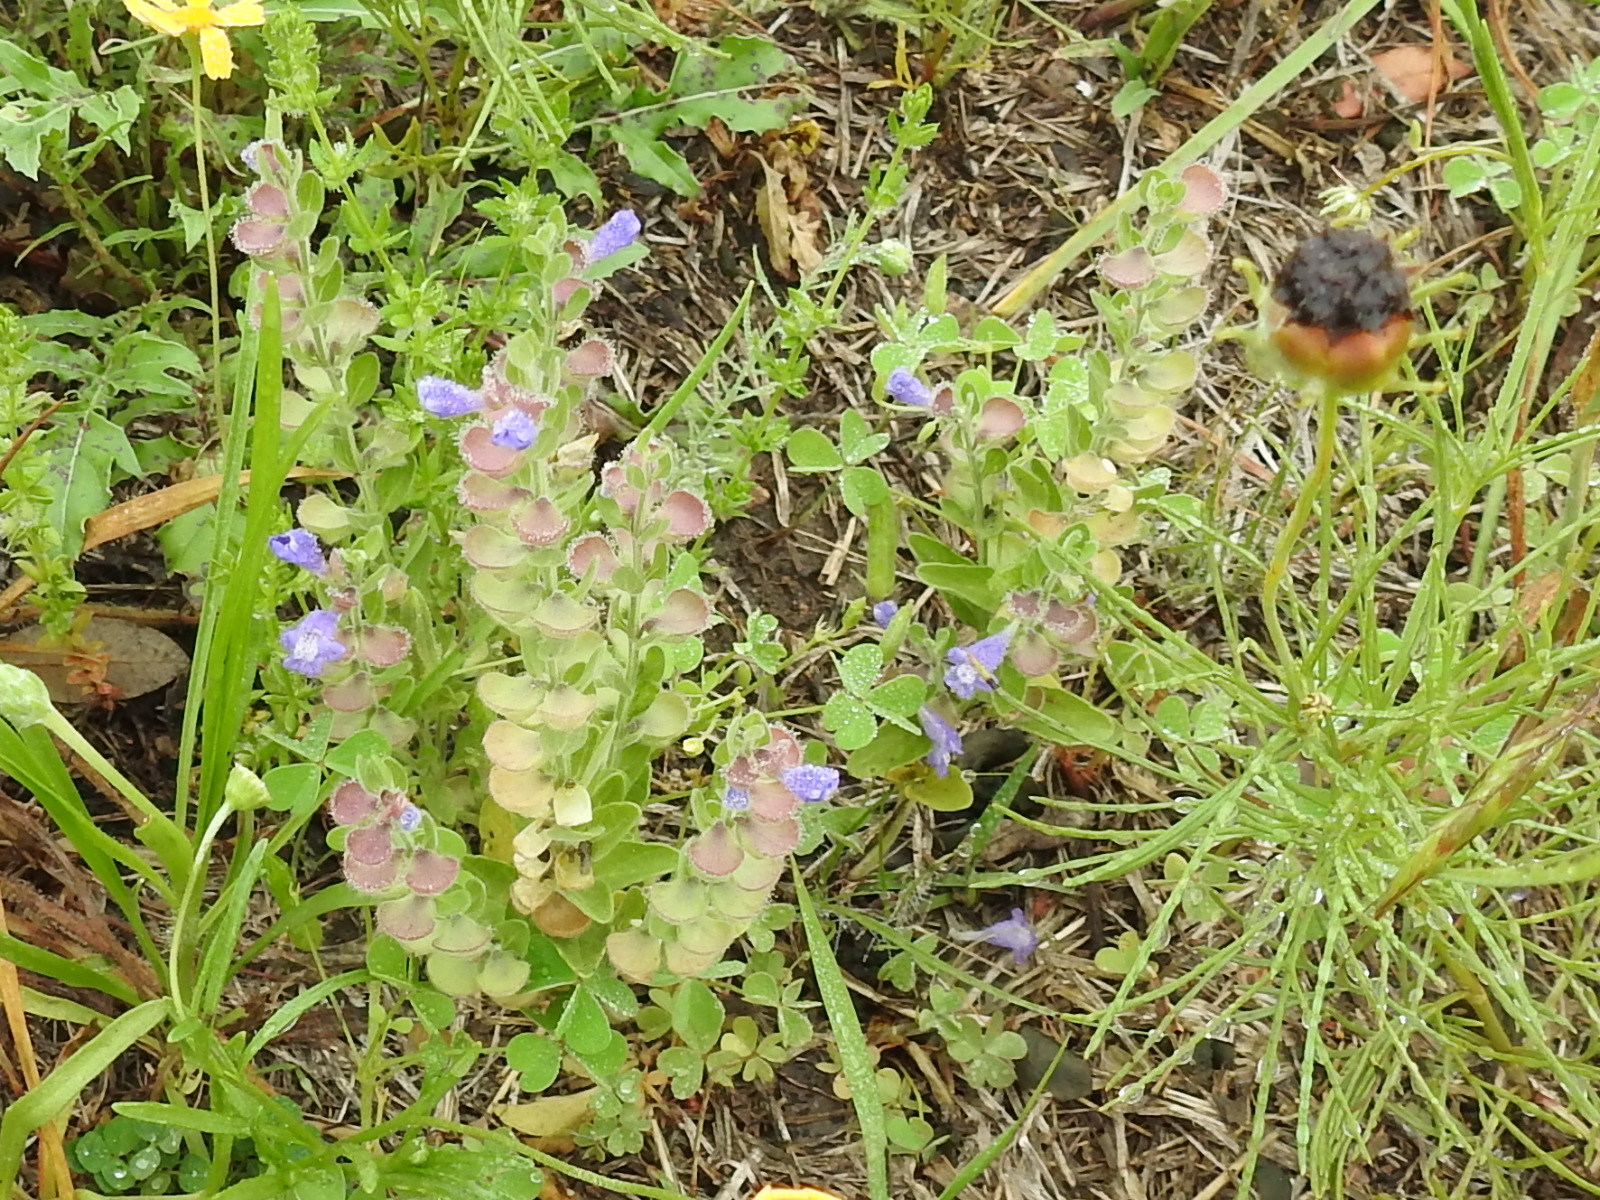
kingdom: Plantae
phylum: Tracheophyta
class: Magnoliopsida
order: Lamiales
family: Lamiaceae
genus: Scutellaria
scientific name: Scutellaria drummondii
